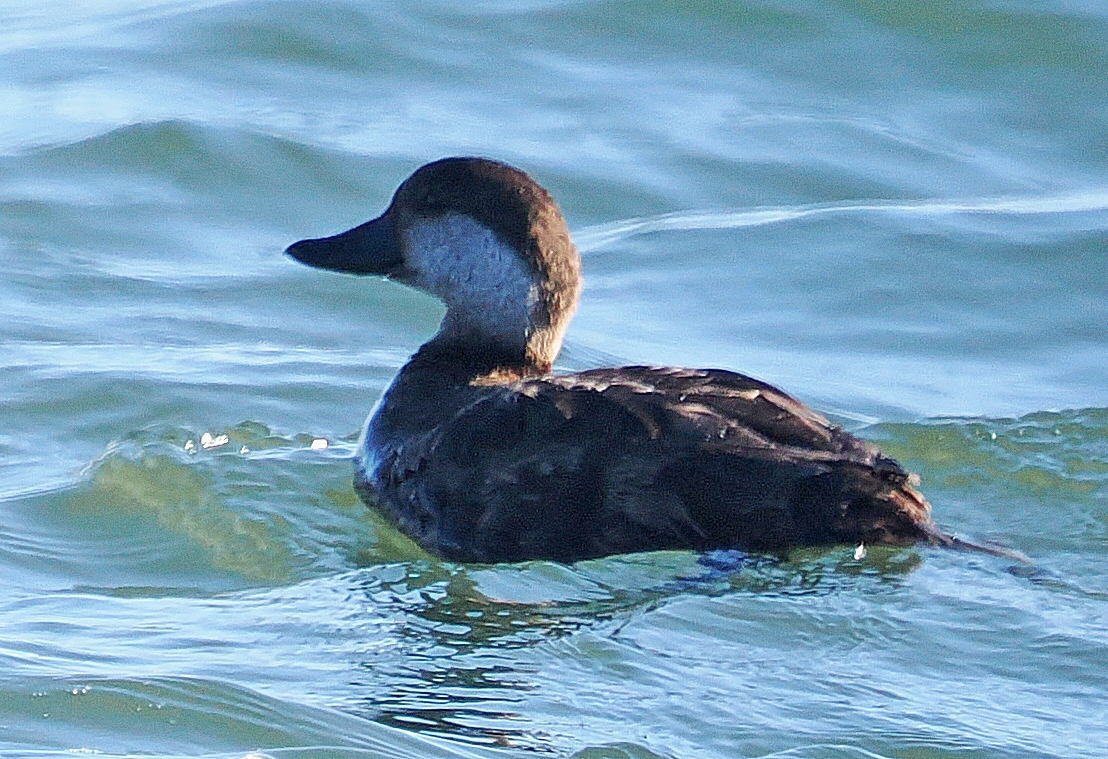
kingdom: Animalia
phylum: Chordata
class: Aves
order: Anseriformes
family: Anatidae
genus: Melanitta
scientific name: Melanitta americana
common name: Black scoter
